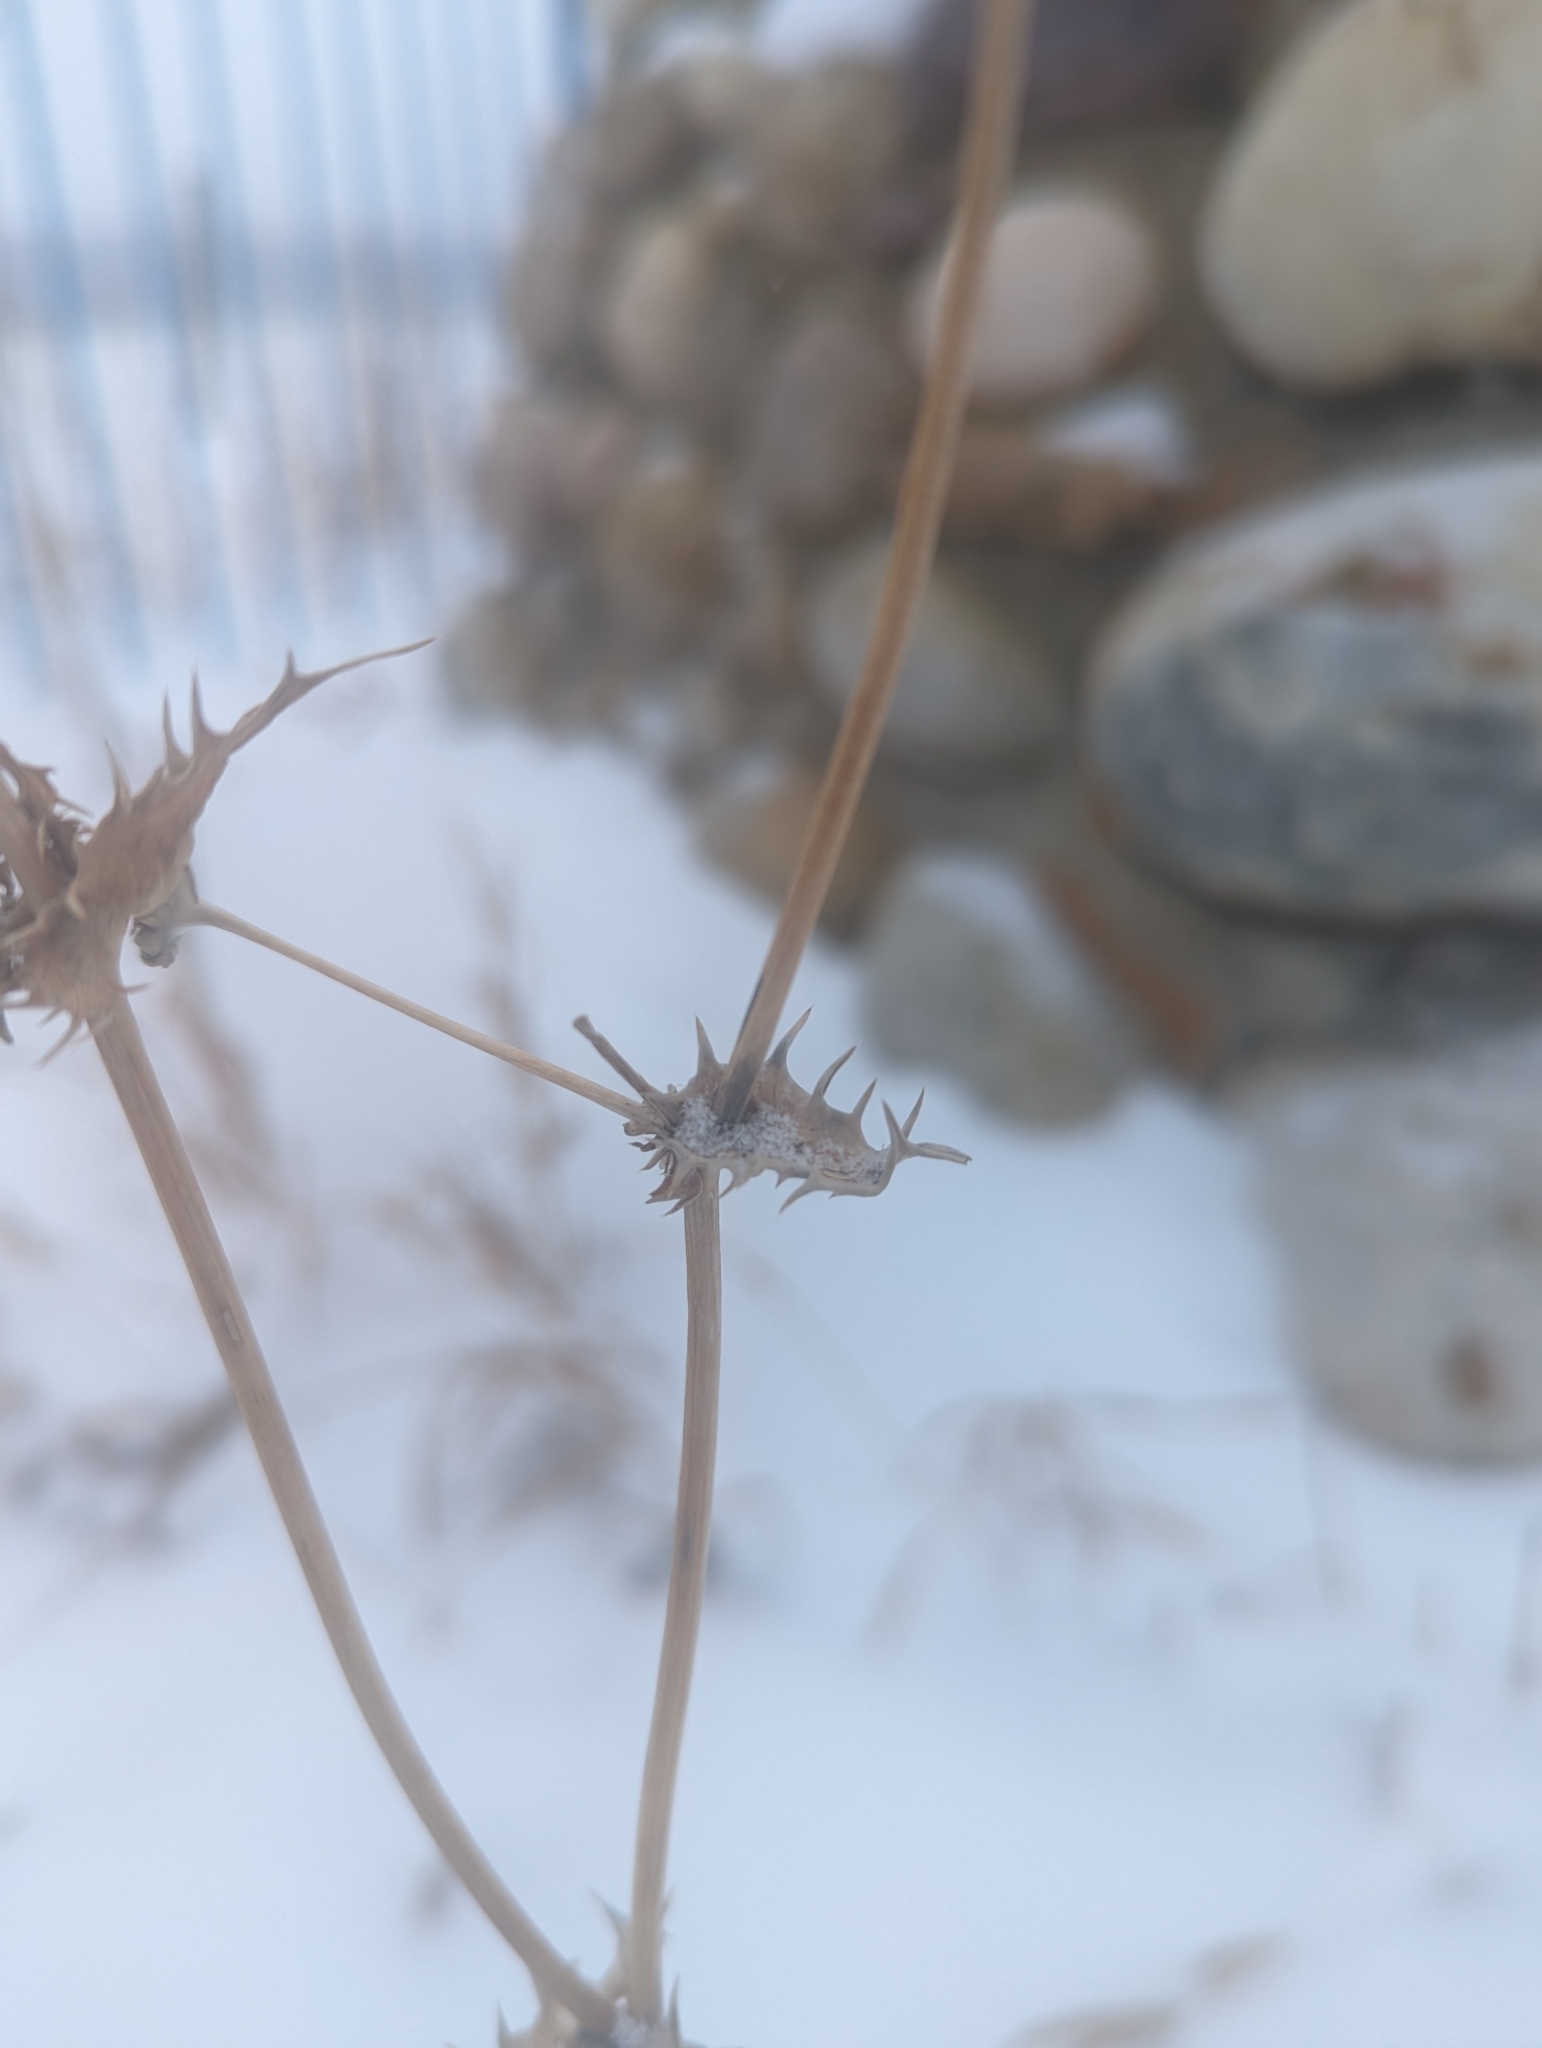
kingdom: Plantae
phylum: Tracheophyta
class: Magnoliopsida
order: Asterales
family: Asteraceae
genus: Sonchus
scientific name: Sonchus asper
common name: Prickly sow-thistle
